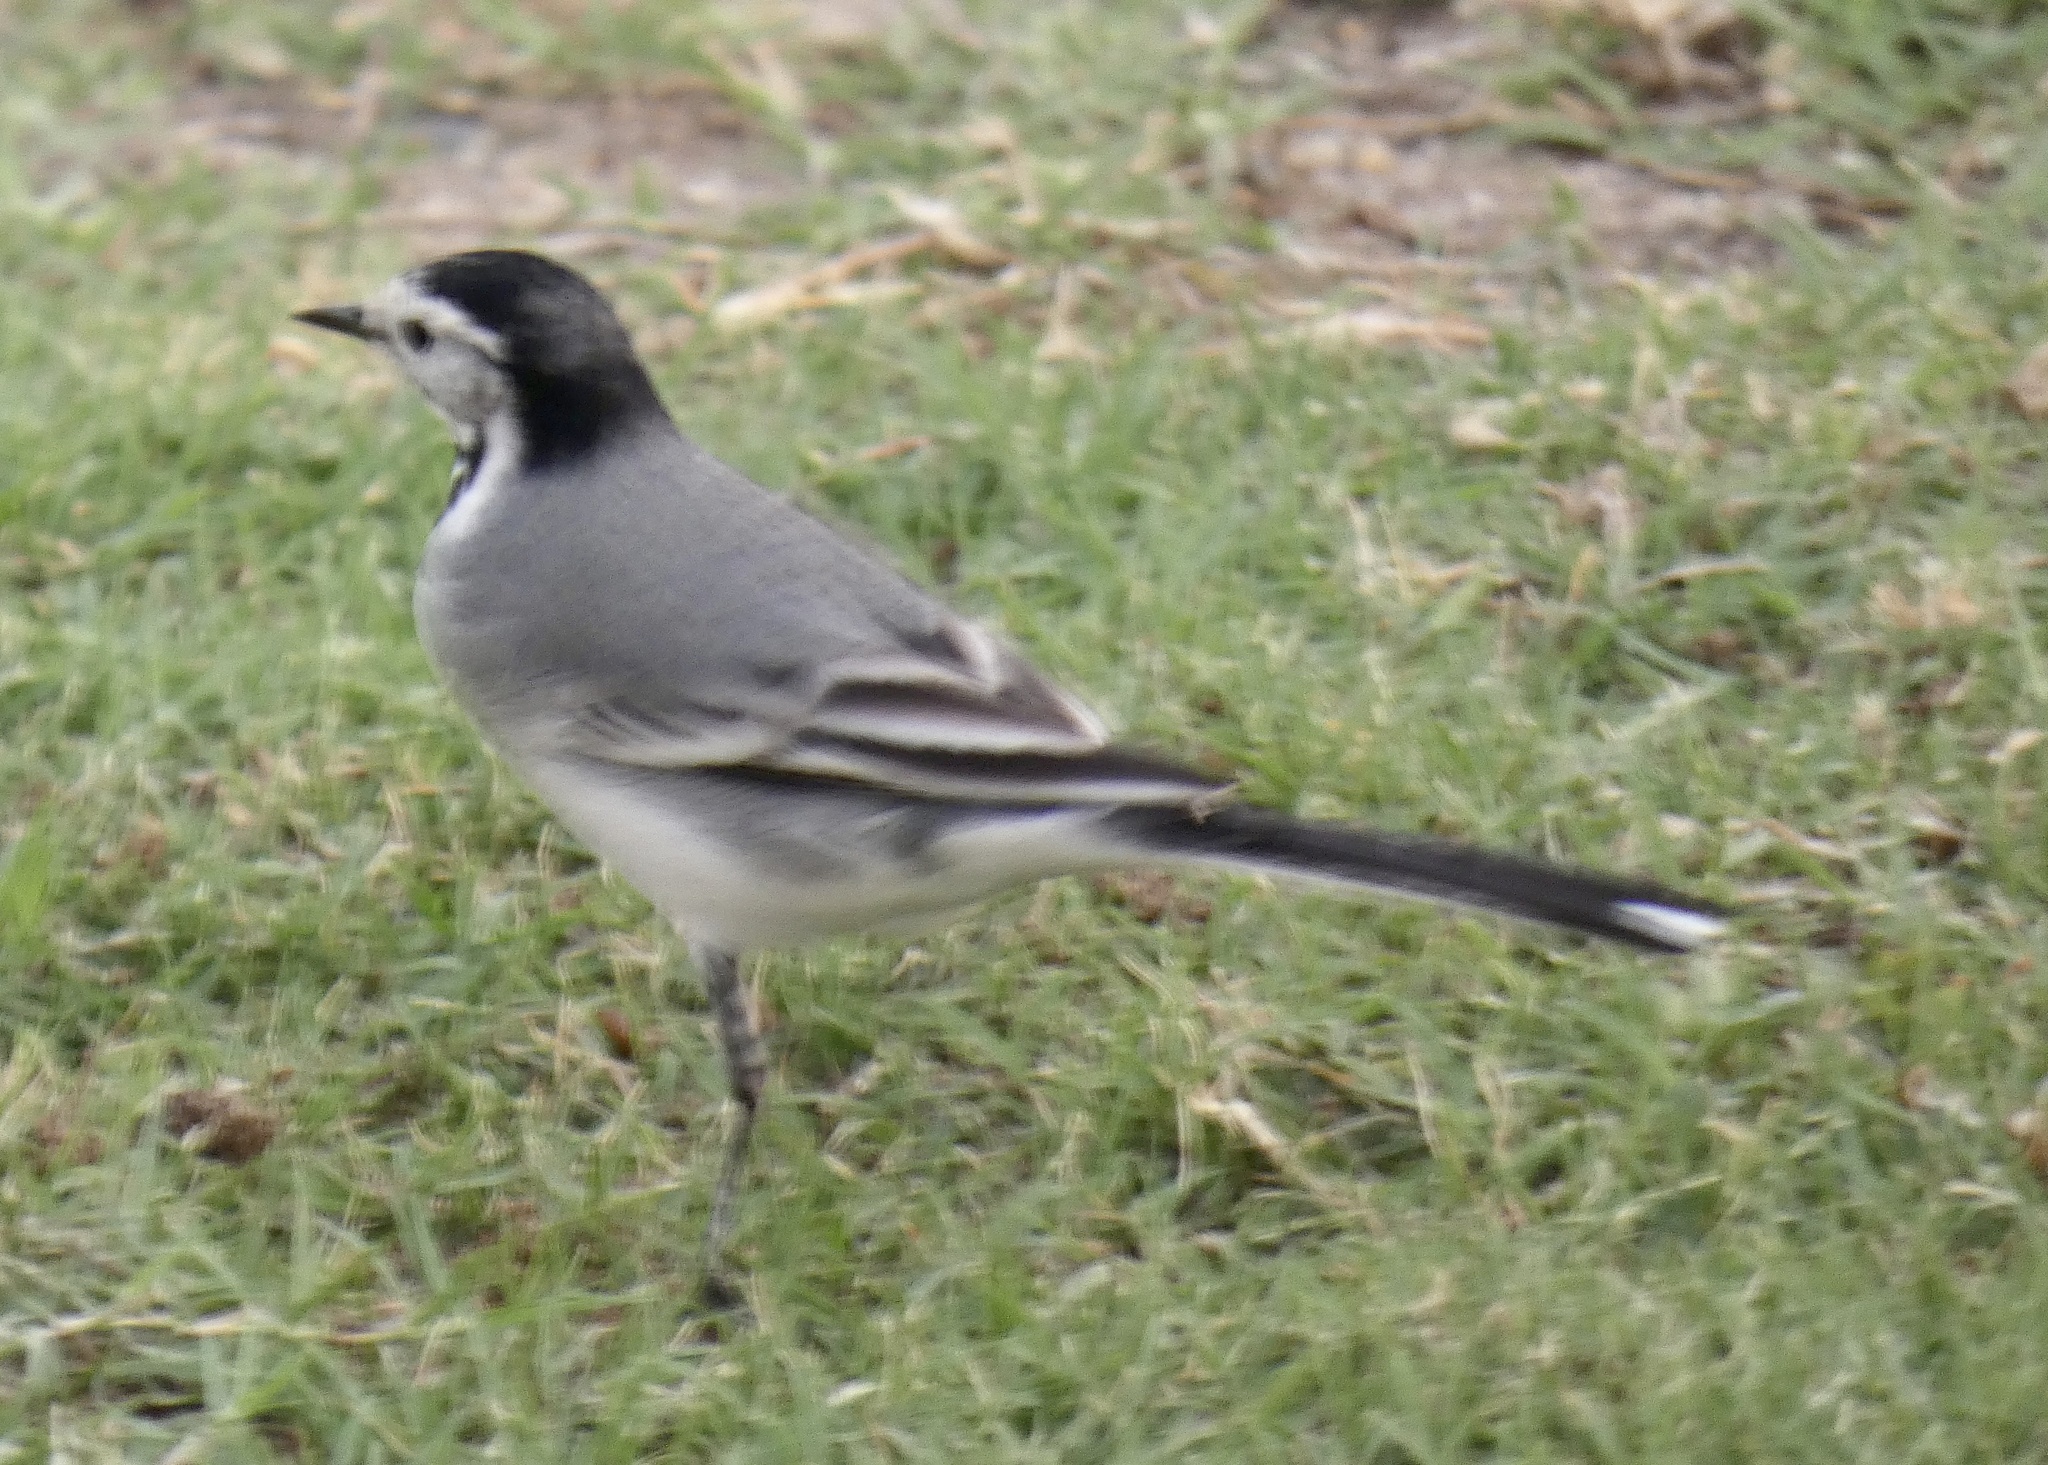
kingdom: Animalia
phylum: Chordata
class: Aves
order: Passeriformes
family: Motacillidae
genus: Motacilla
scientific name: Motacilla alba
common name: White wagtail
